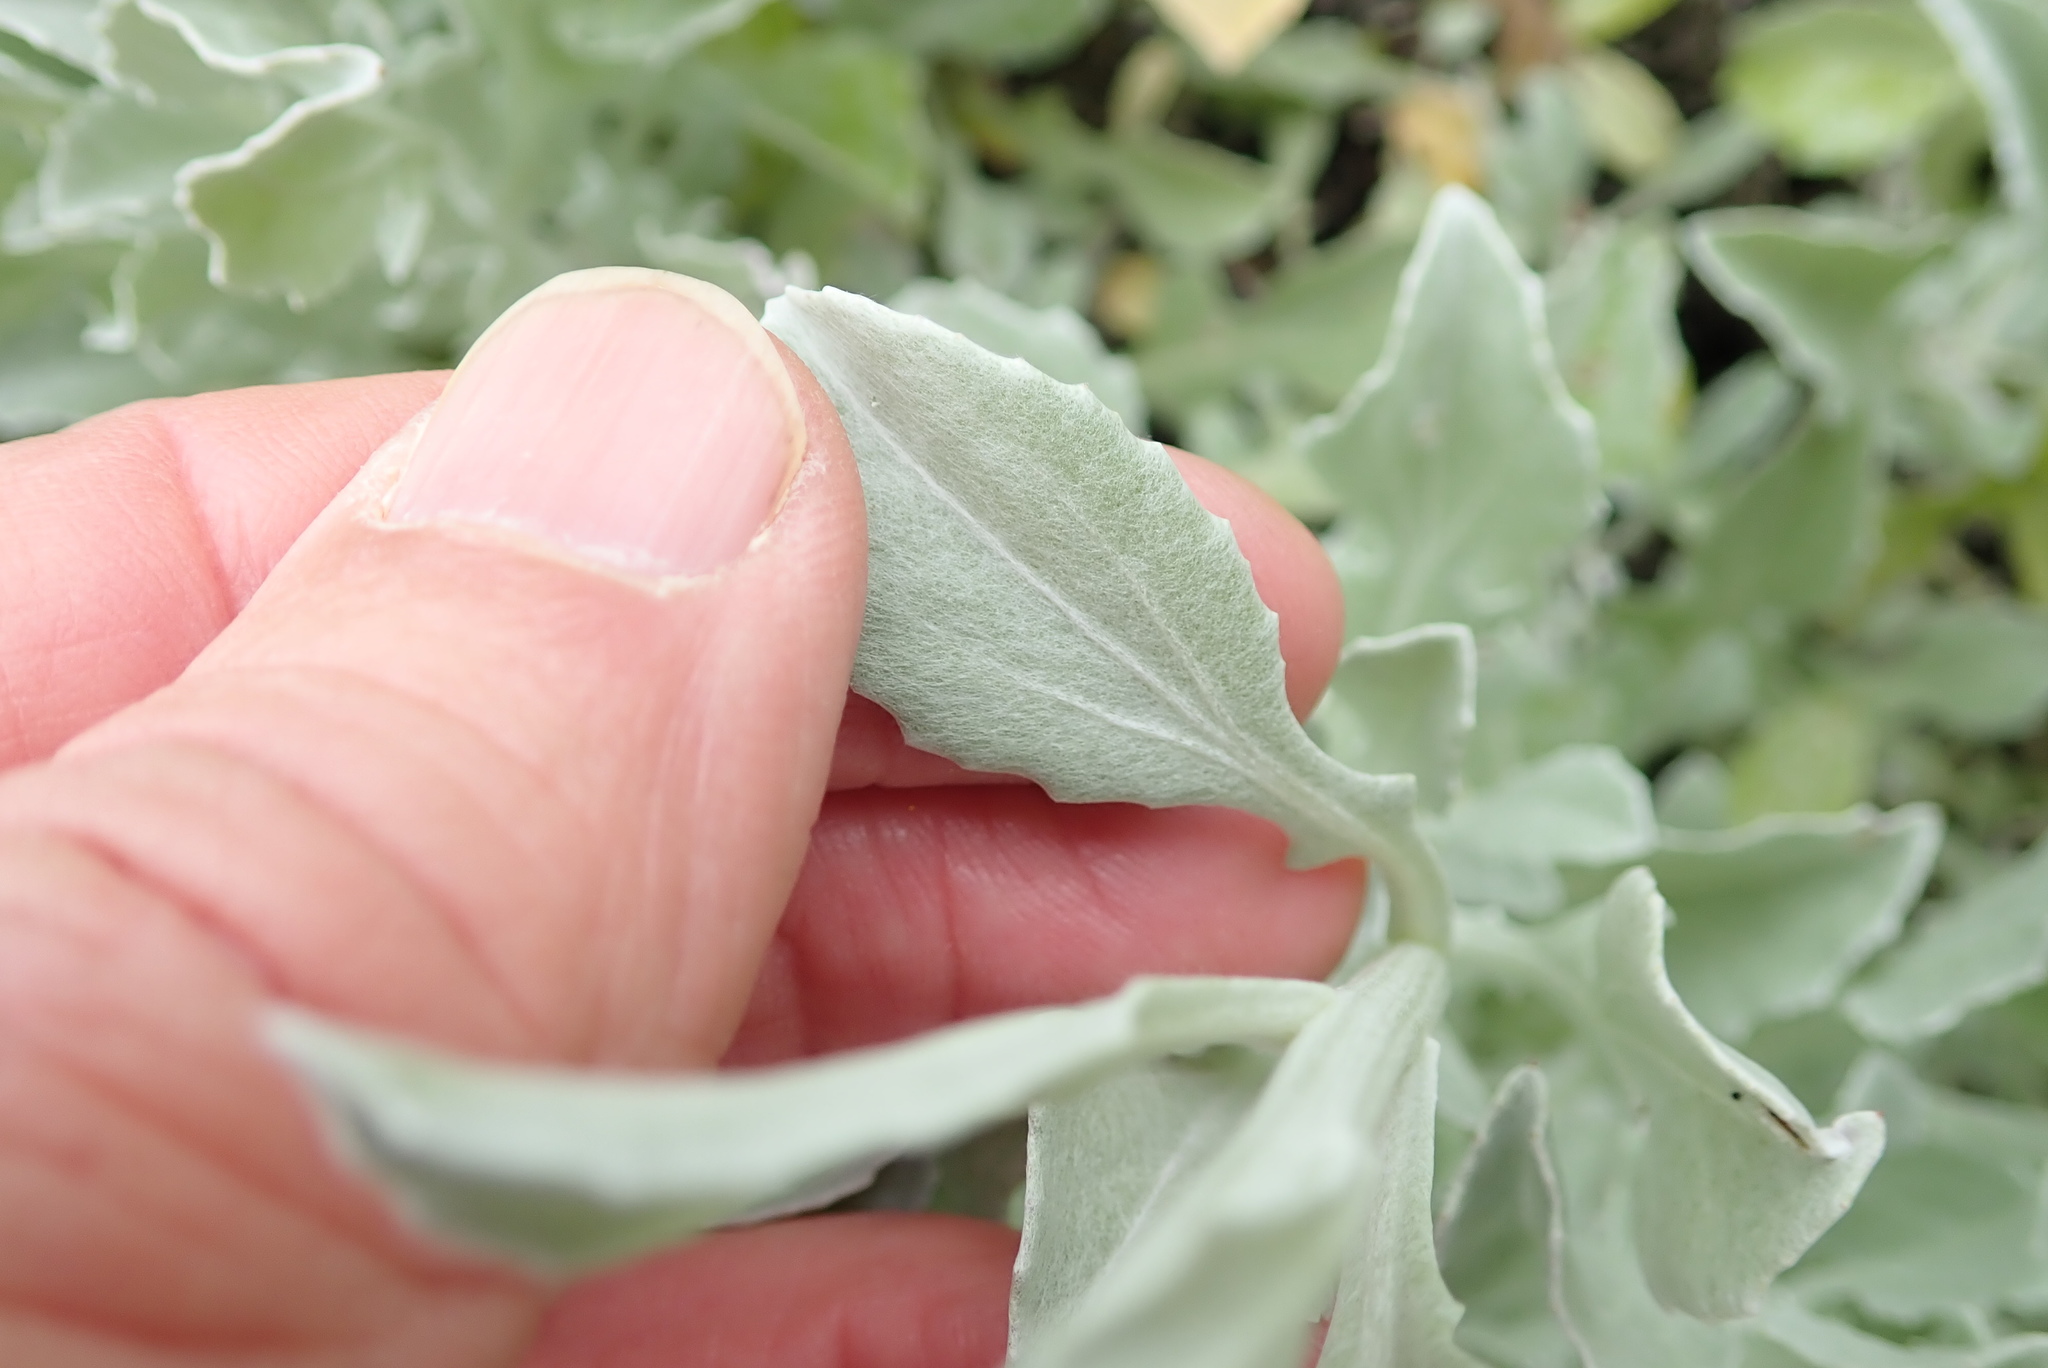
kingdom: Plantae
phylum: Tracheophyta
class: Magnoliopsida
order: Asterales
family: Asteraceae
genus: Arctotis
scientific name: Arctotis stoechadifolia
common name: African daisy
